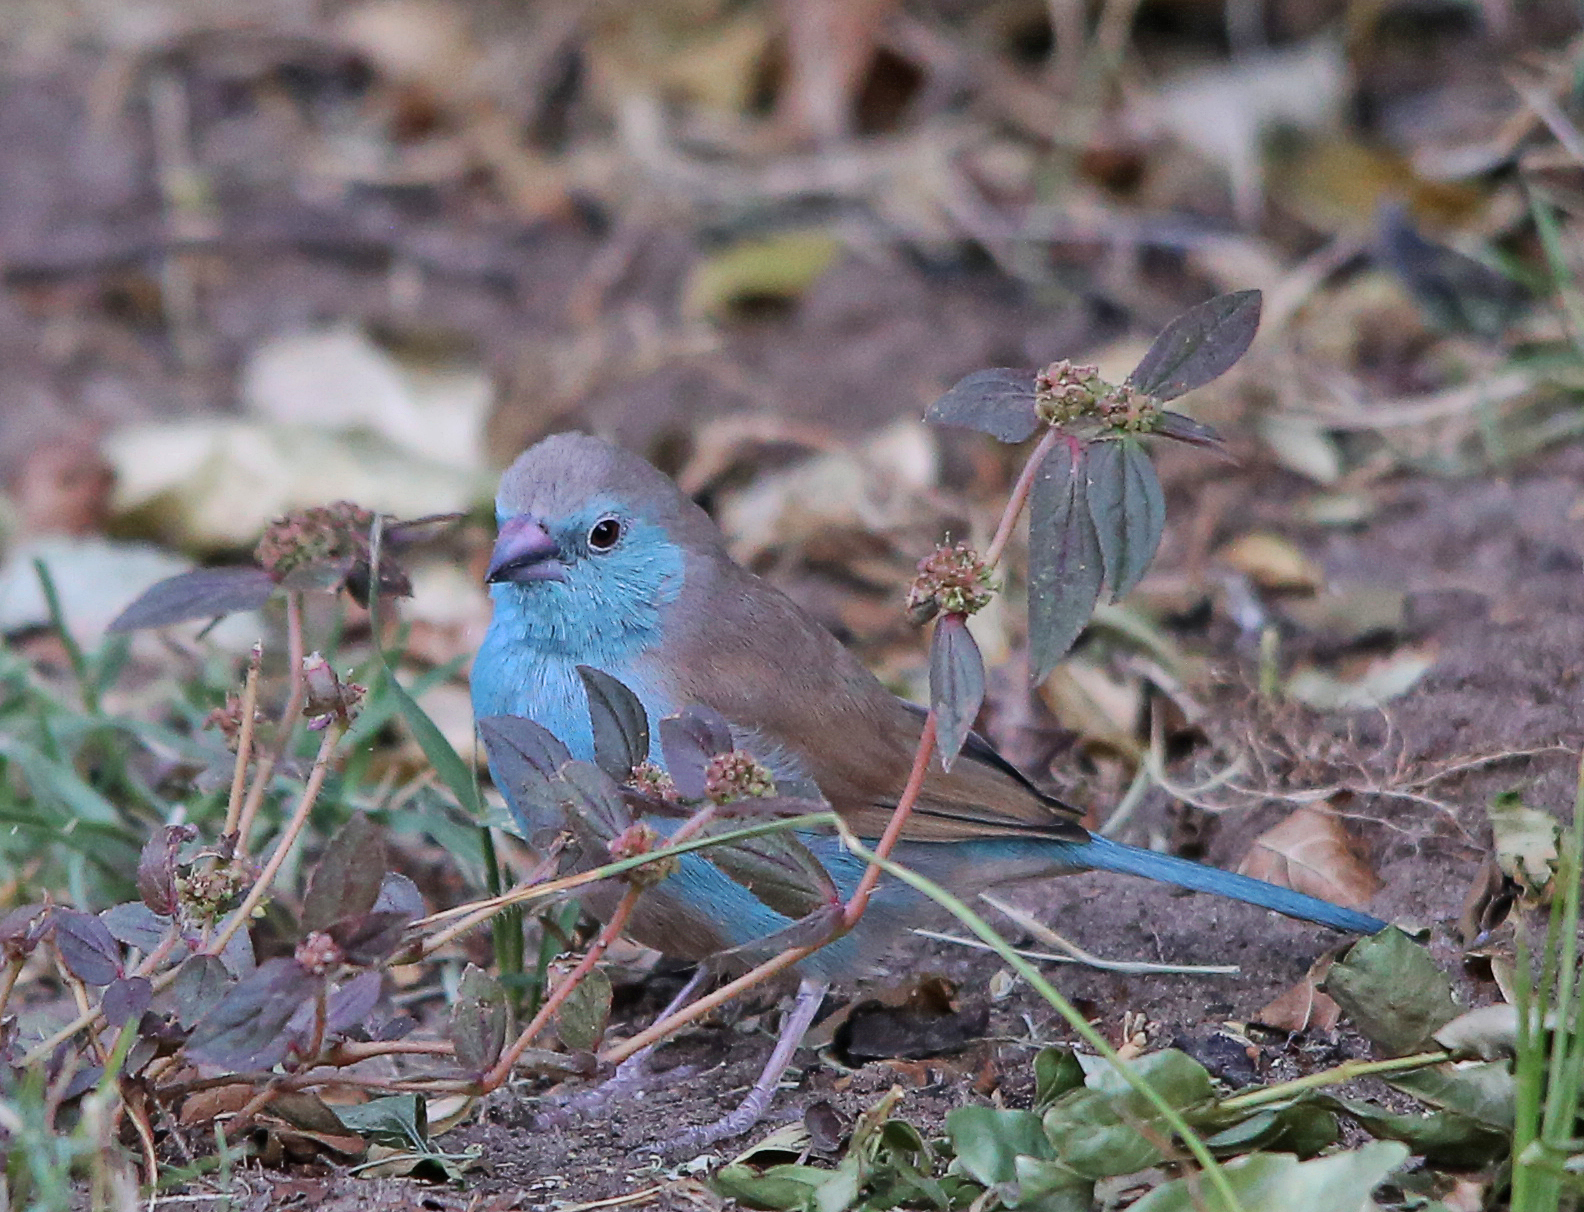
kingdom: Animalia
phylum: Chordata
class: Aves
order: Passeriformes
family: Estrildidae
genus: Uraeginthus
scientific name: Uraeginthus angolensis
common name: Blue waxbill
